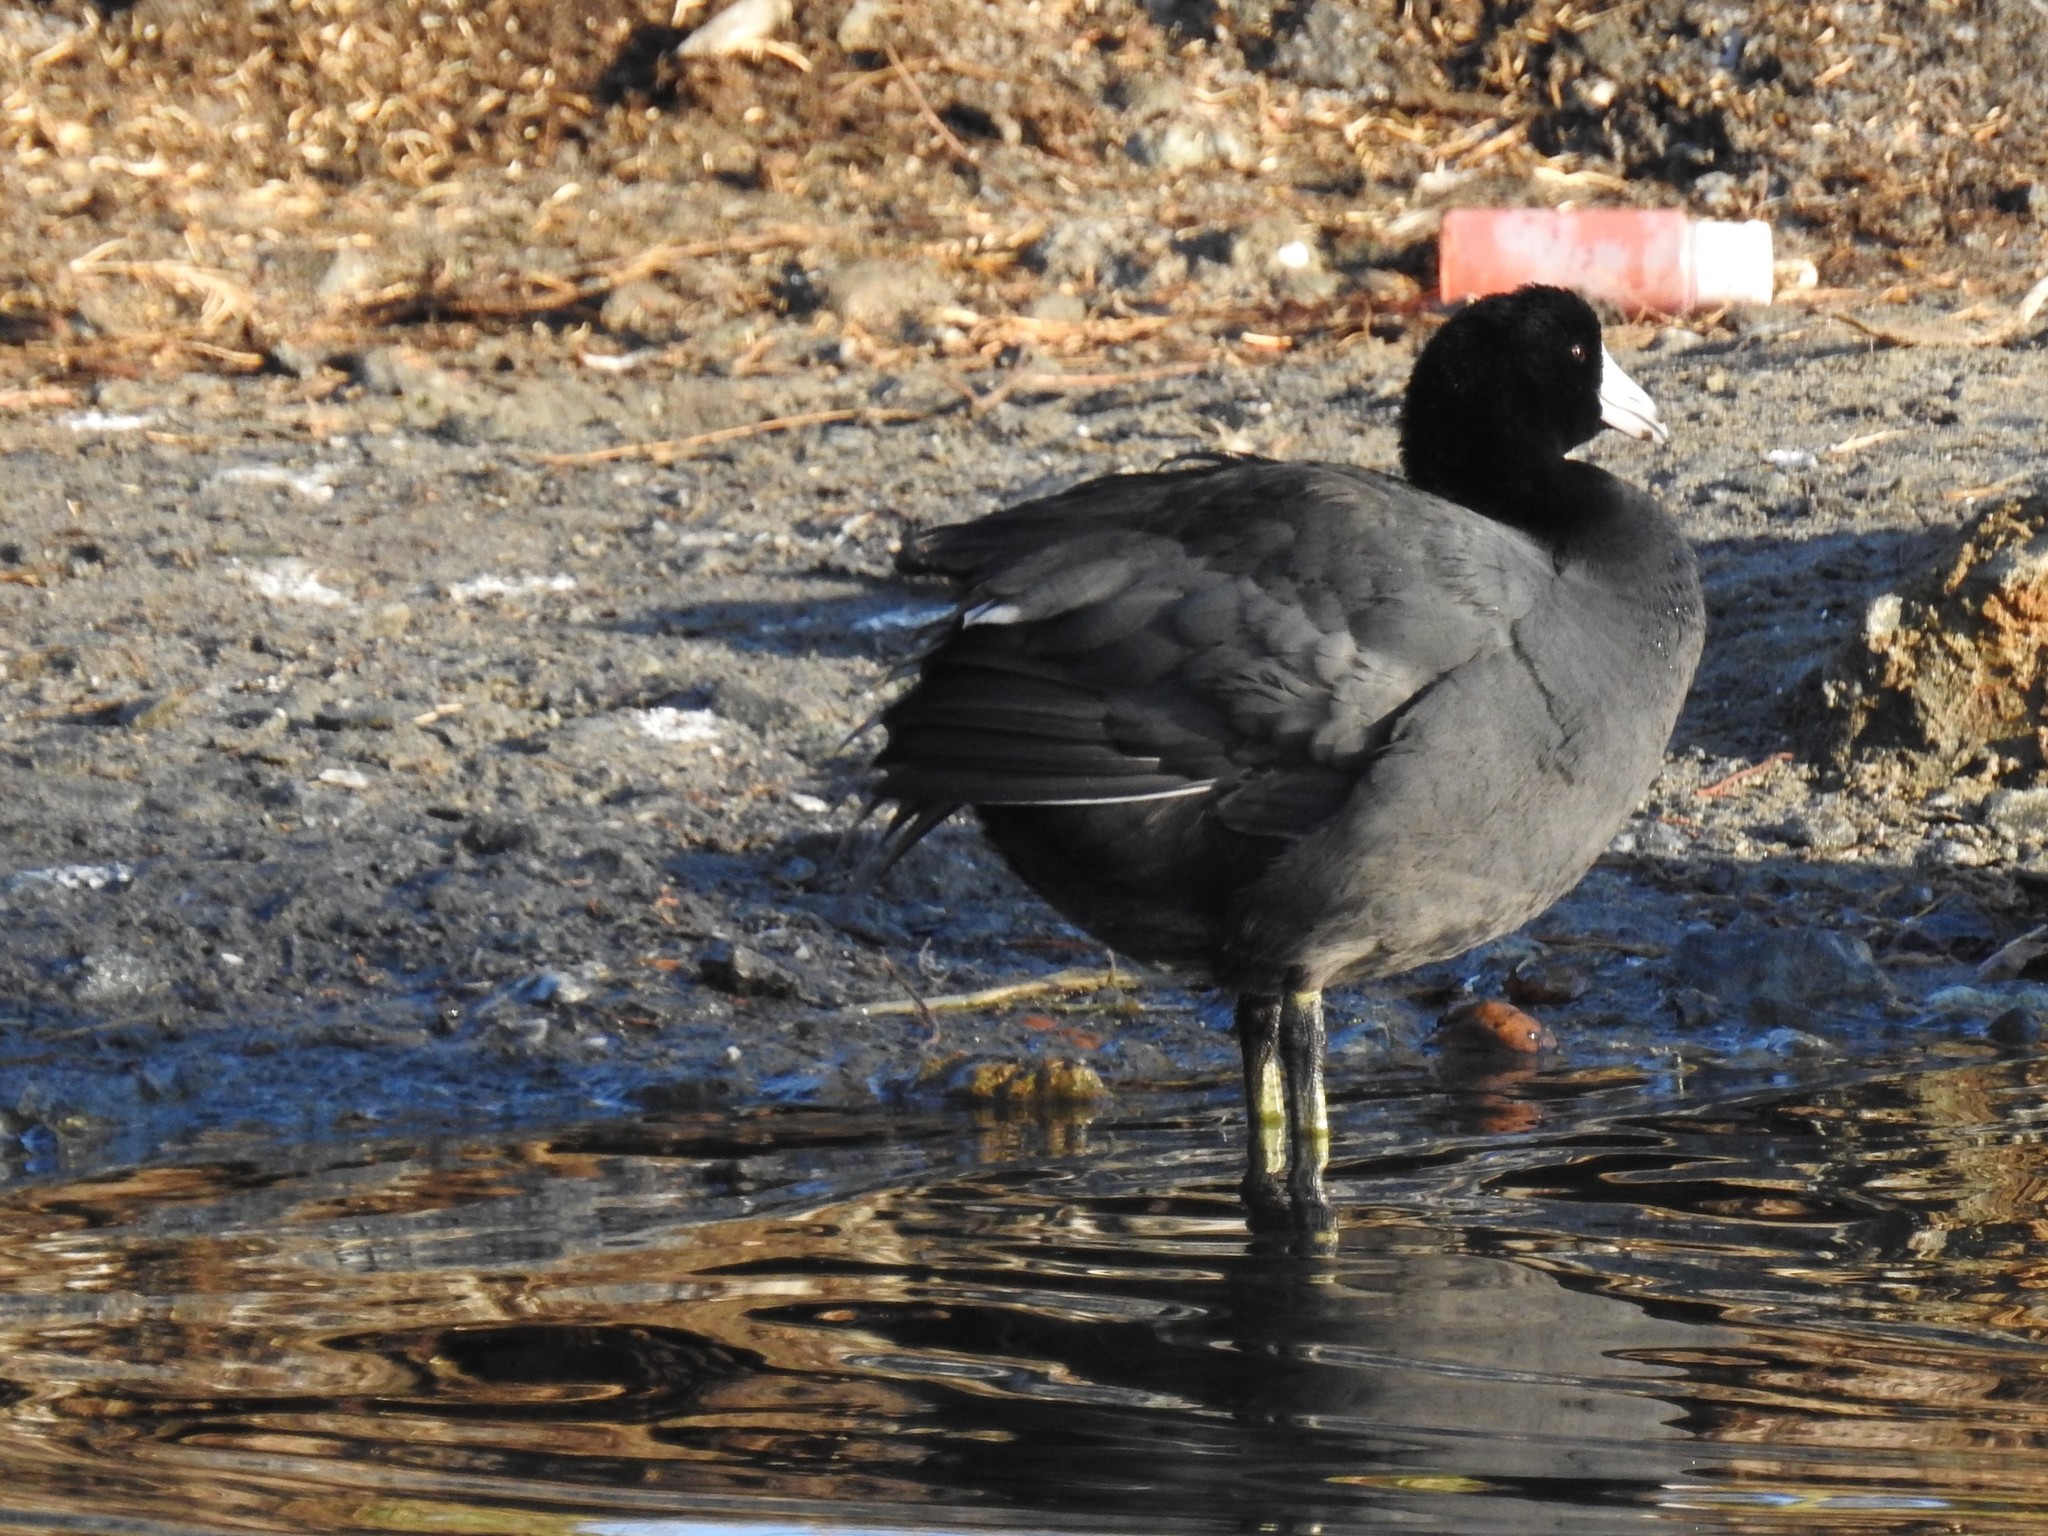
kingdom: Animalia
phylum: Chordata
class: Aves
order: Gruiformes
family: Rallidae
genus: Fulica
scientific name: Fulica americana
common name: American coot
